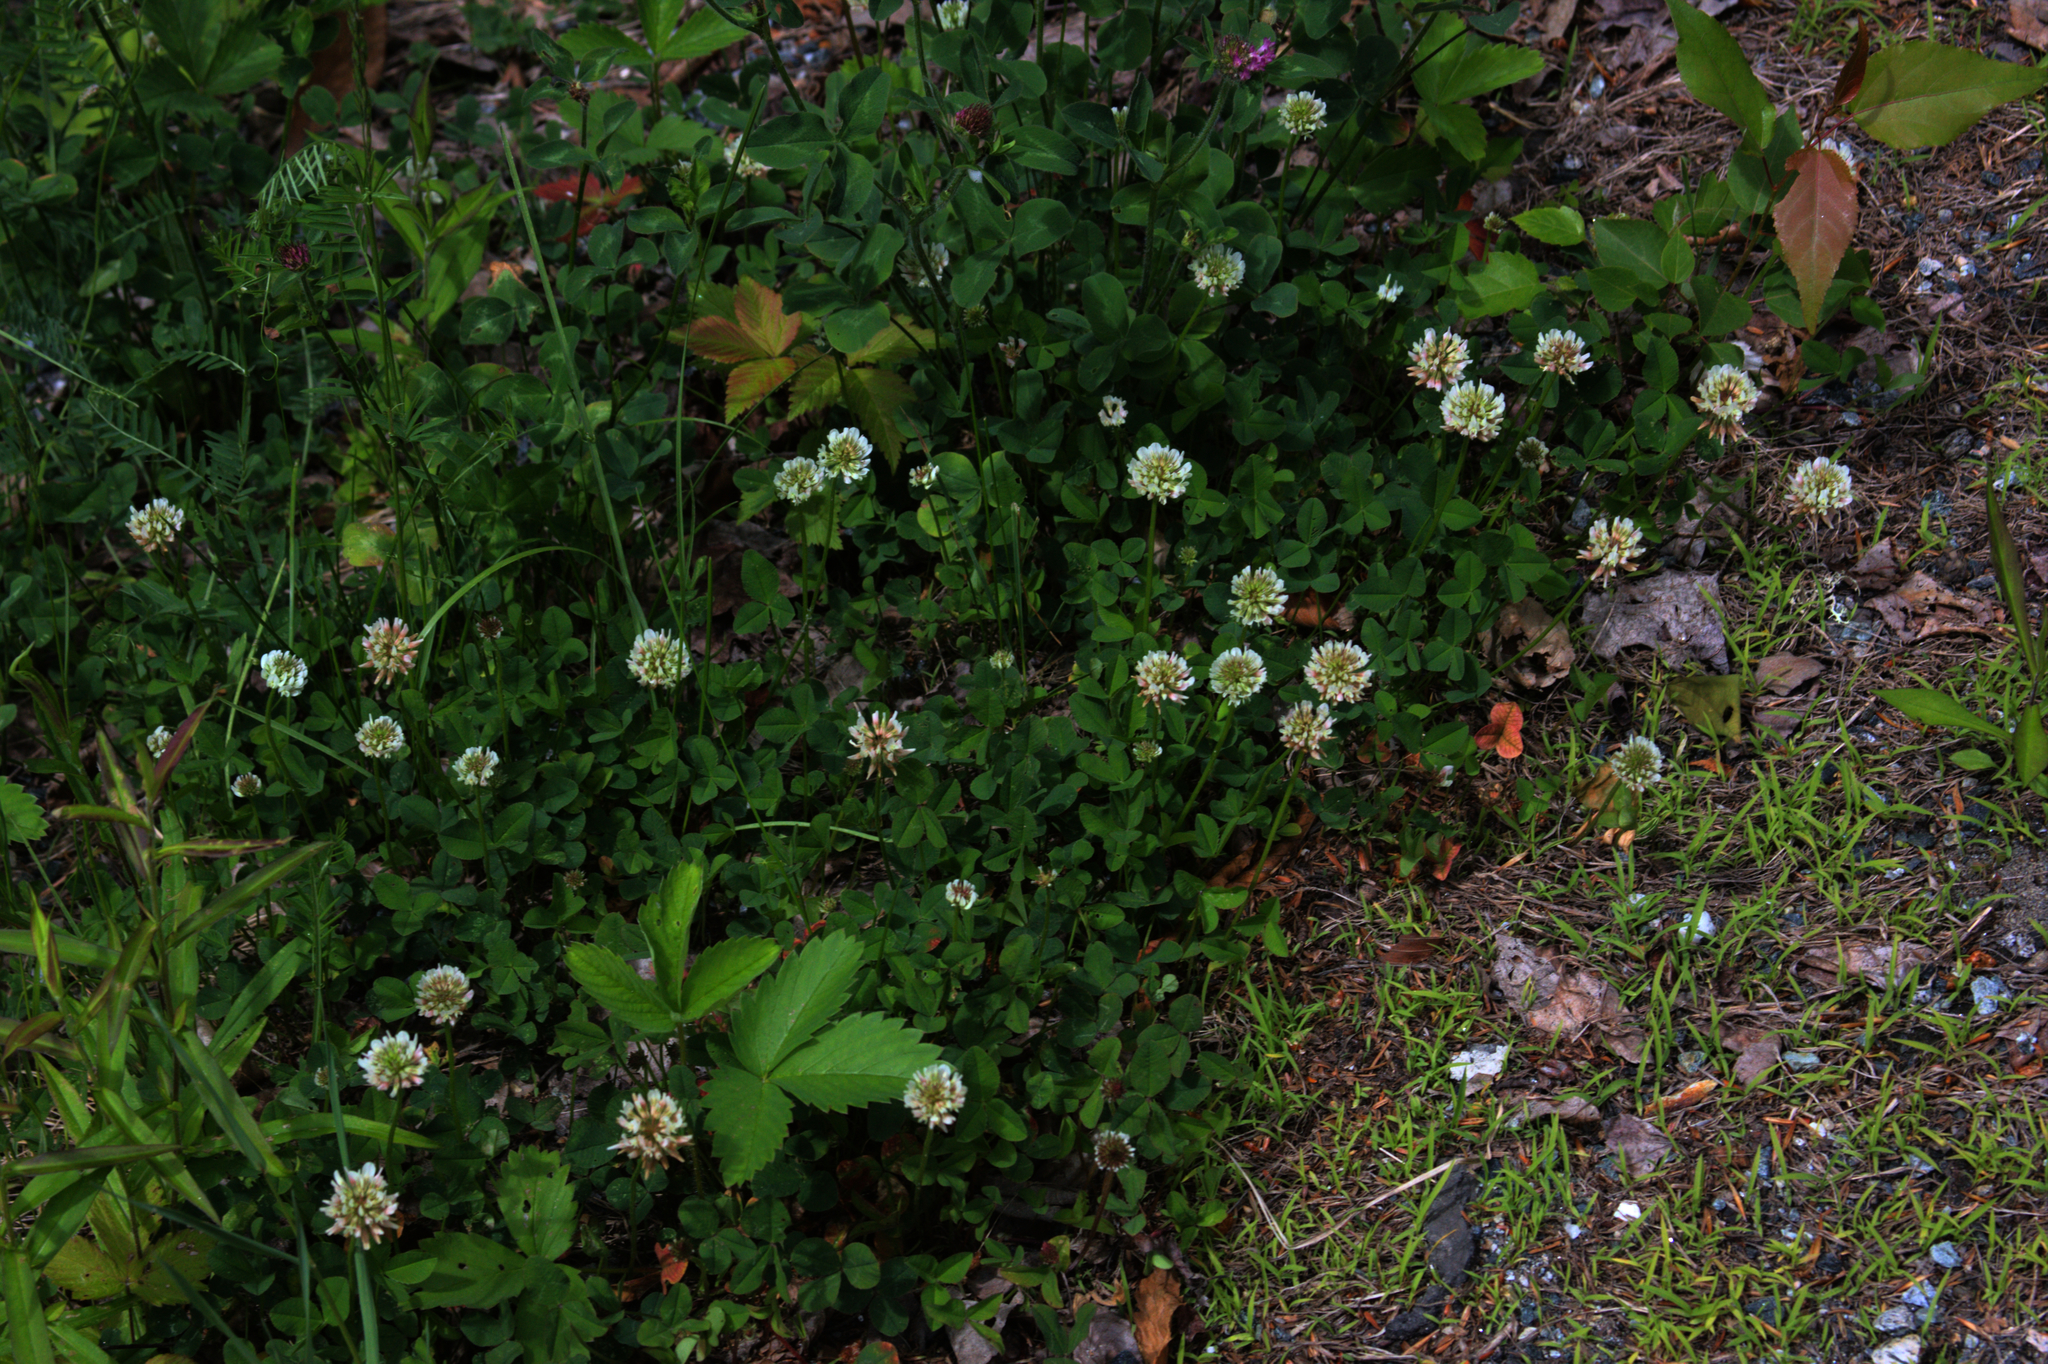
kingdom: Plantae
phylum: Tracheophyta
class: Magnoliopsida
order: Fabales
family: Fabaceae
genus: Trifolium
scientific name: Trifolium repens
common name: White clover
